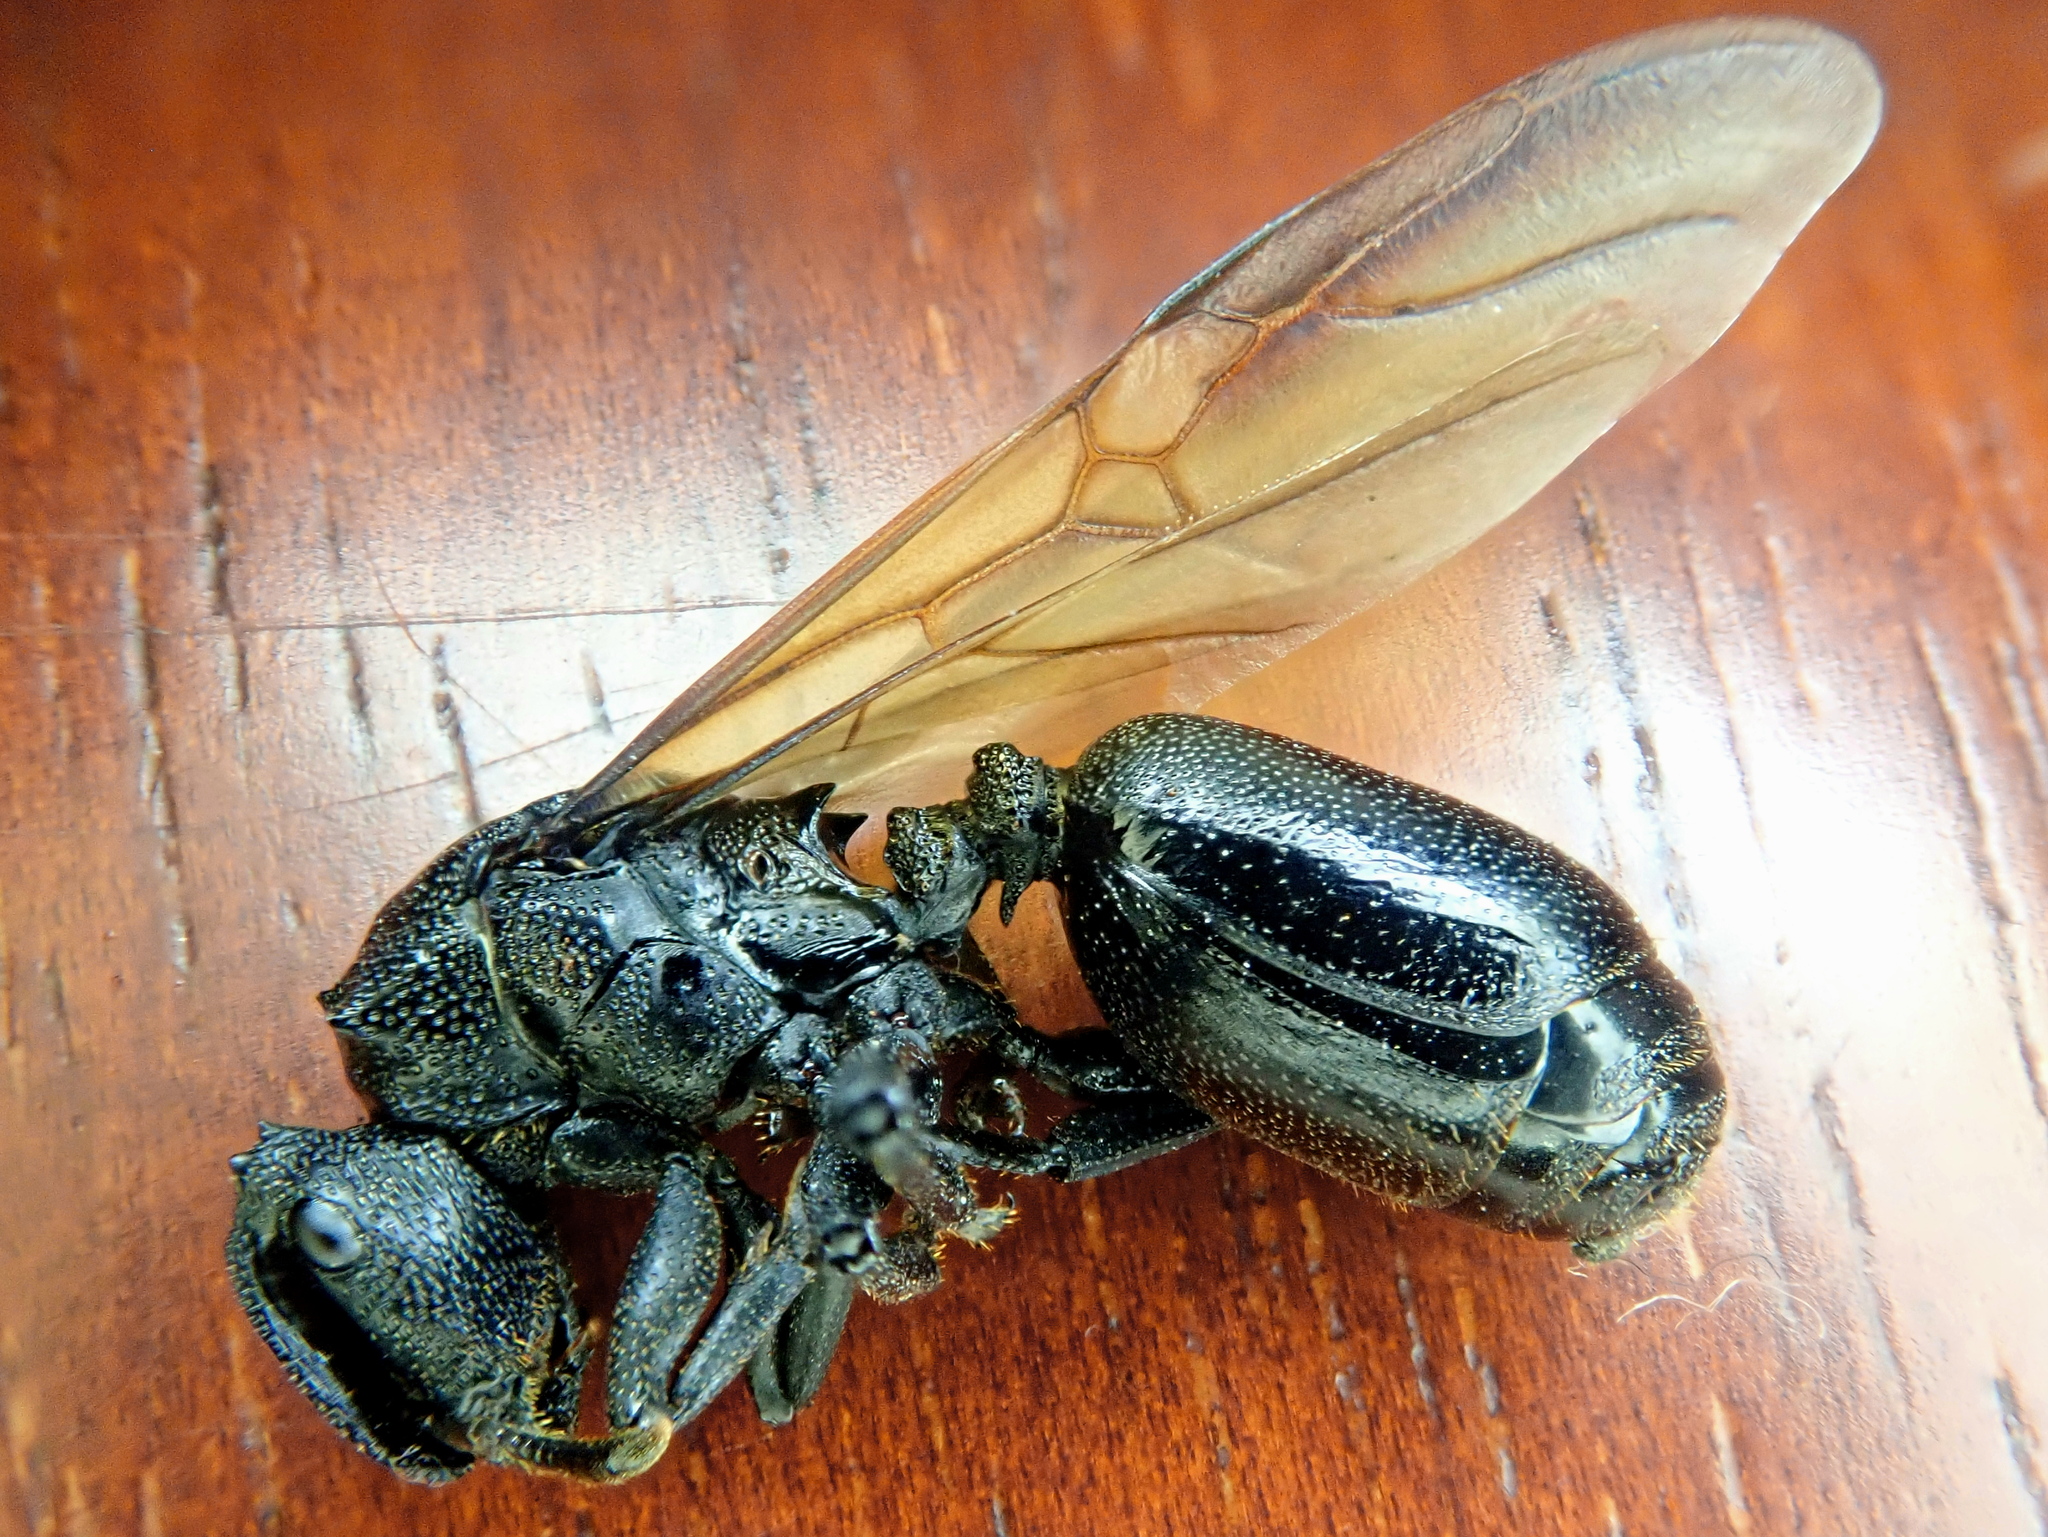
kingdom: Animalia
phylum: Arthropoda
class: Insecta
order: Hymenoptera
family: Formicidae
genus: Cephalotes
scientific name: Cephalotes atratus
